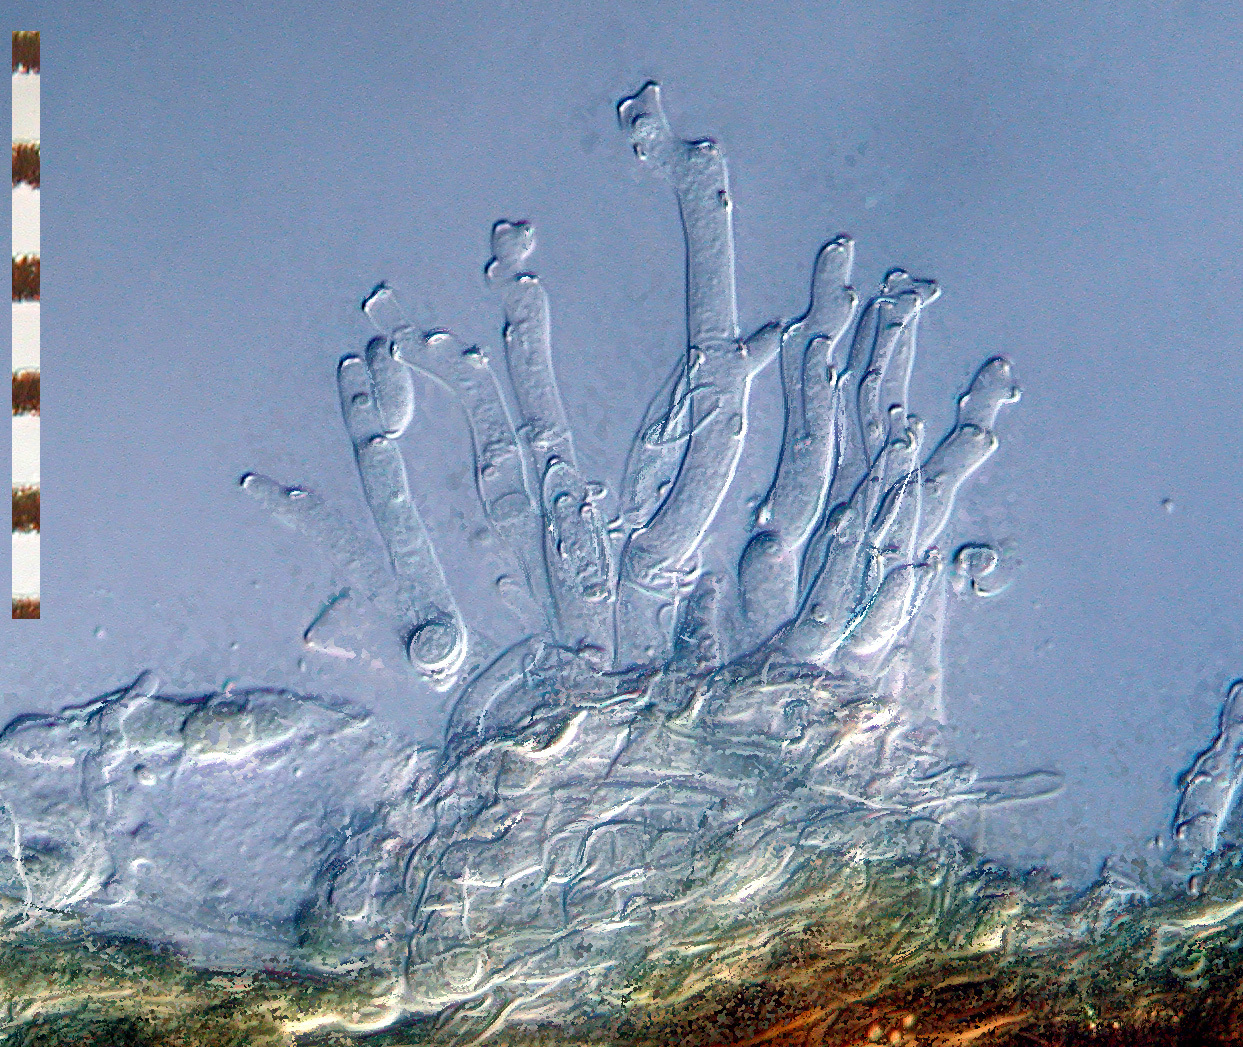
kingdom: Fungi
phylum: Ascomycota
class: Dothideomycetes
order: Mycosphaerellales
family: Mycosphaerellaceae
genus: Ramularia
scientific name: Ramularia lapsanae
